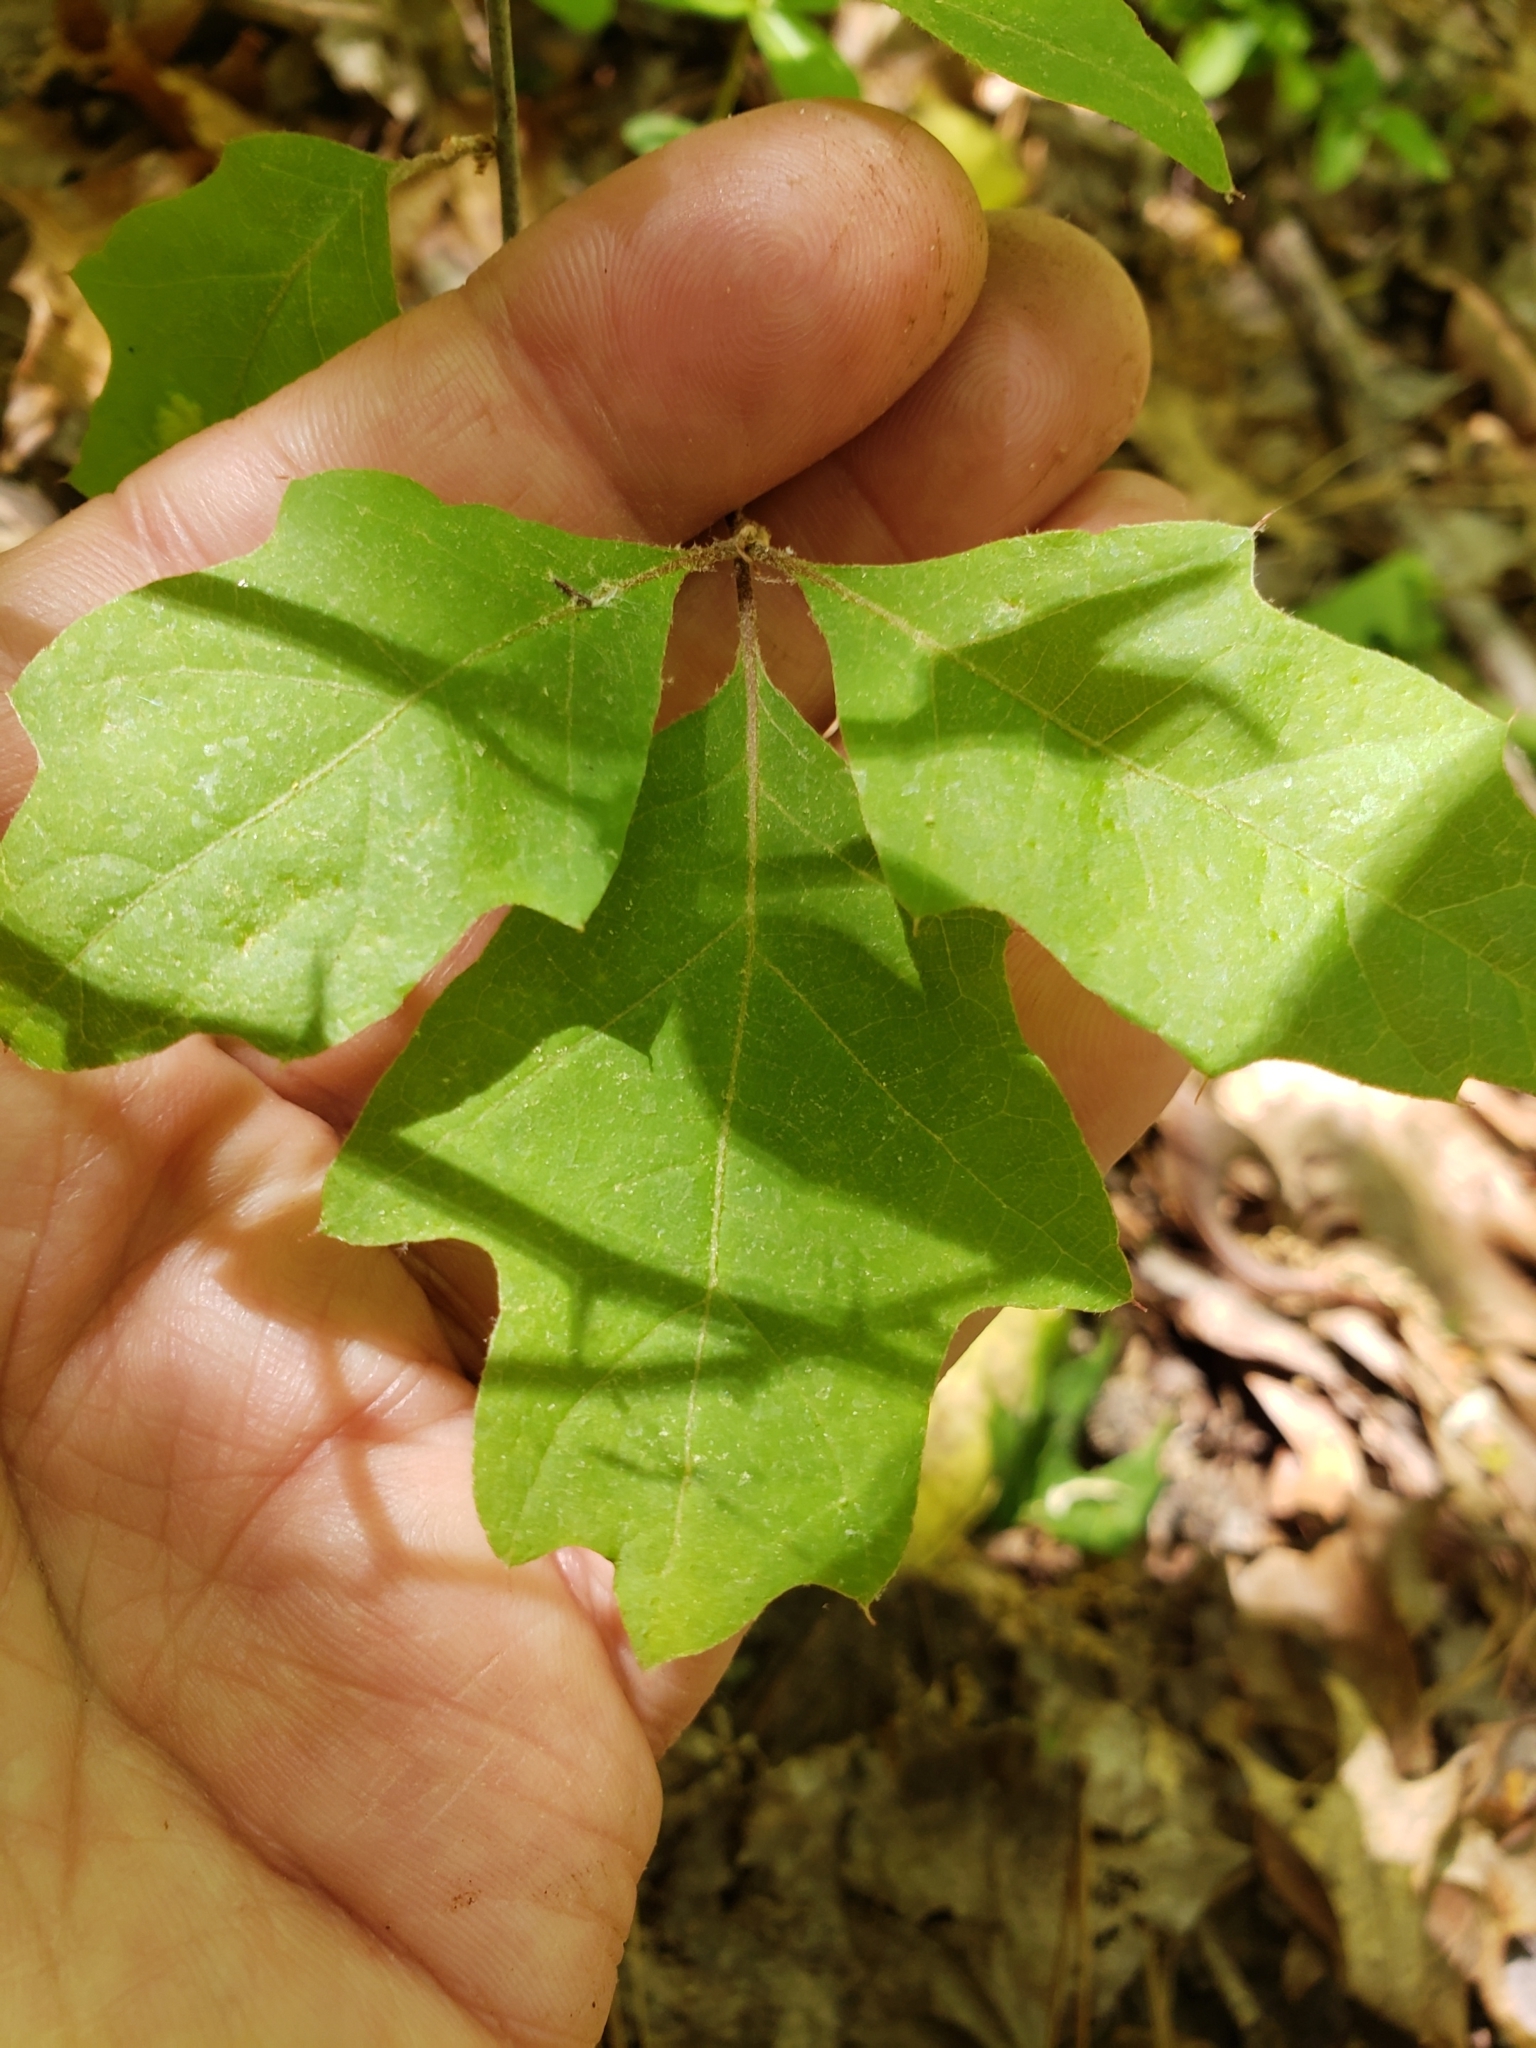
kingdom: Animalia
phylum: Arthropoda
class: Insecta
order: Hymenoptera
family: Cynipidae
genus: Dryocosmus
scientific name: Dryocosmus quercuspalustris
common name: Succulent oak gall wasp
